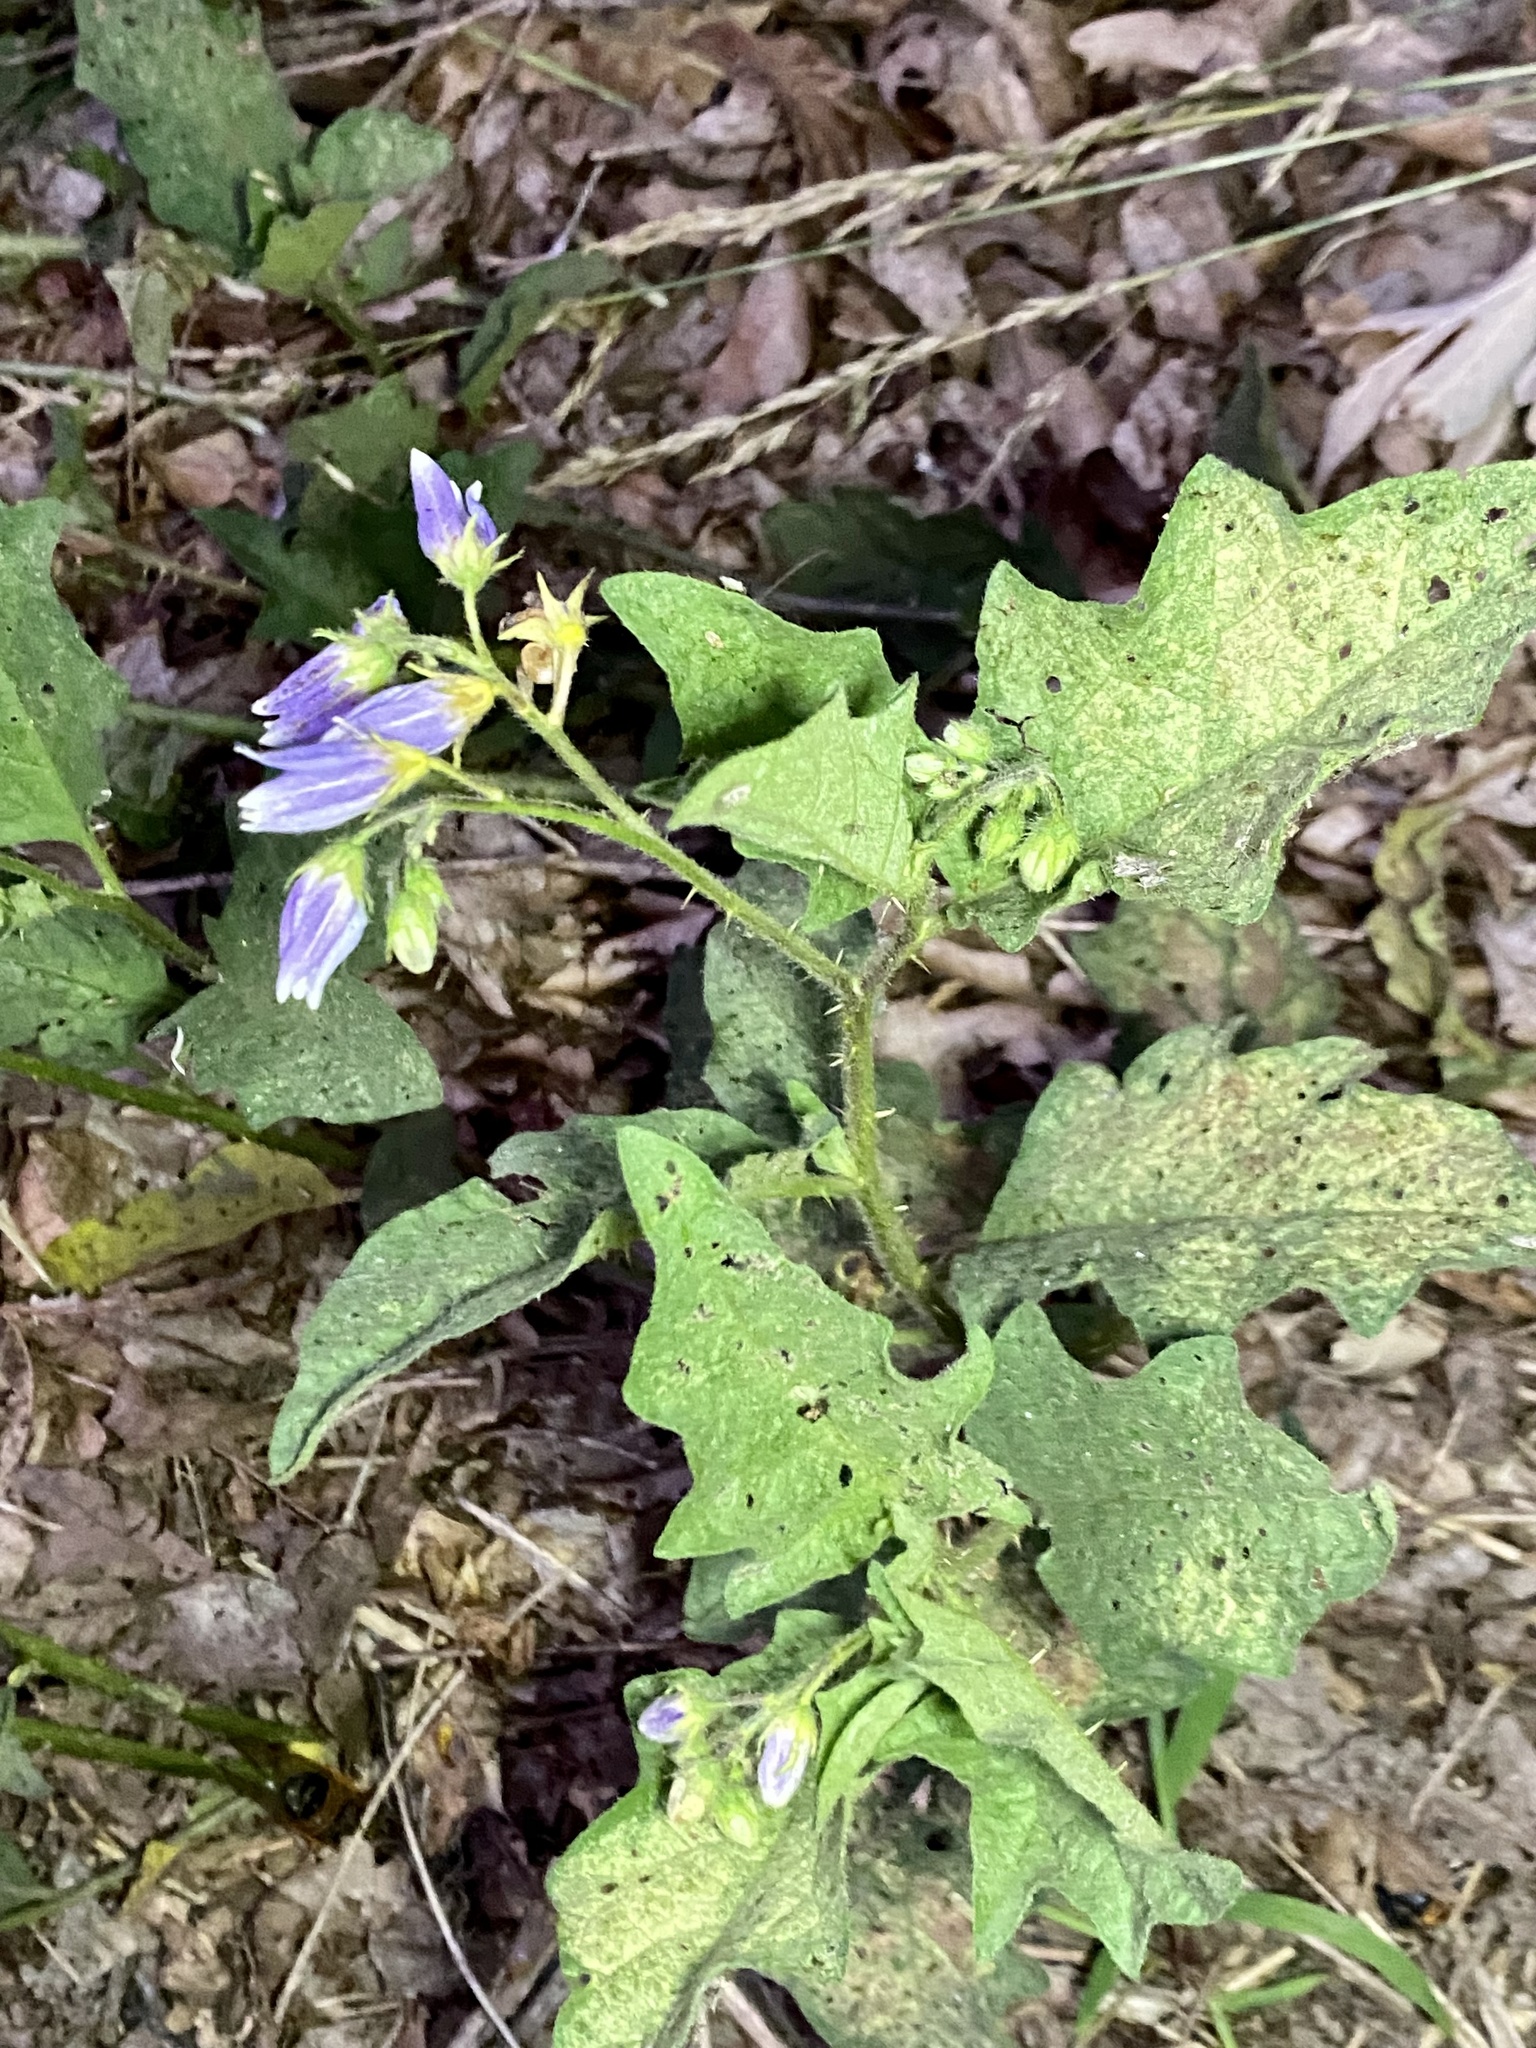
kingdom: Plantae
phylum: Tracheophyta
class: Magnoliopsida
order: Solanales
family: Solanaceae
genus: Solanum
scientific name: Solanum carolinense
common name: Horse-nettle
